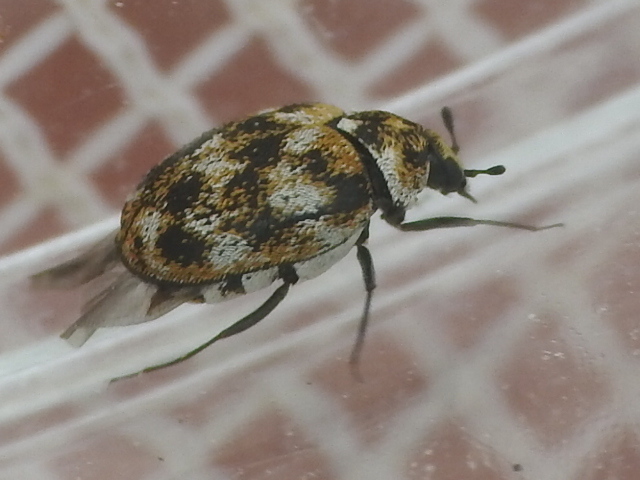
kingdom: Animalia
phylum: Arthropoda
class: Insecta
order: Coleoptera
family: Dermestidae
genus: Anthrenus
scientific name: Anthrenus verbasci
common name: Varied carpet beetle
